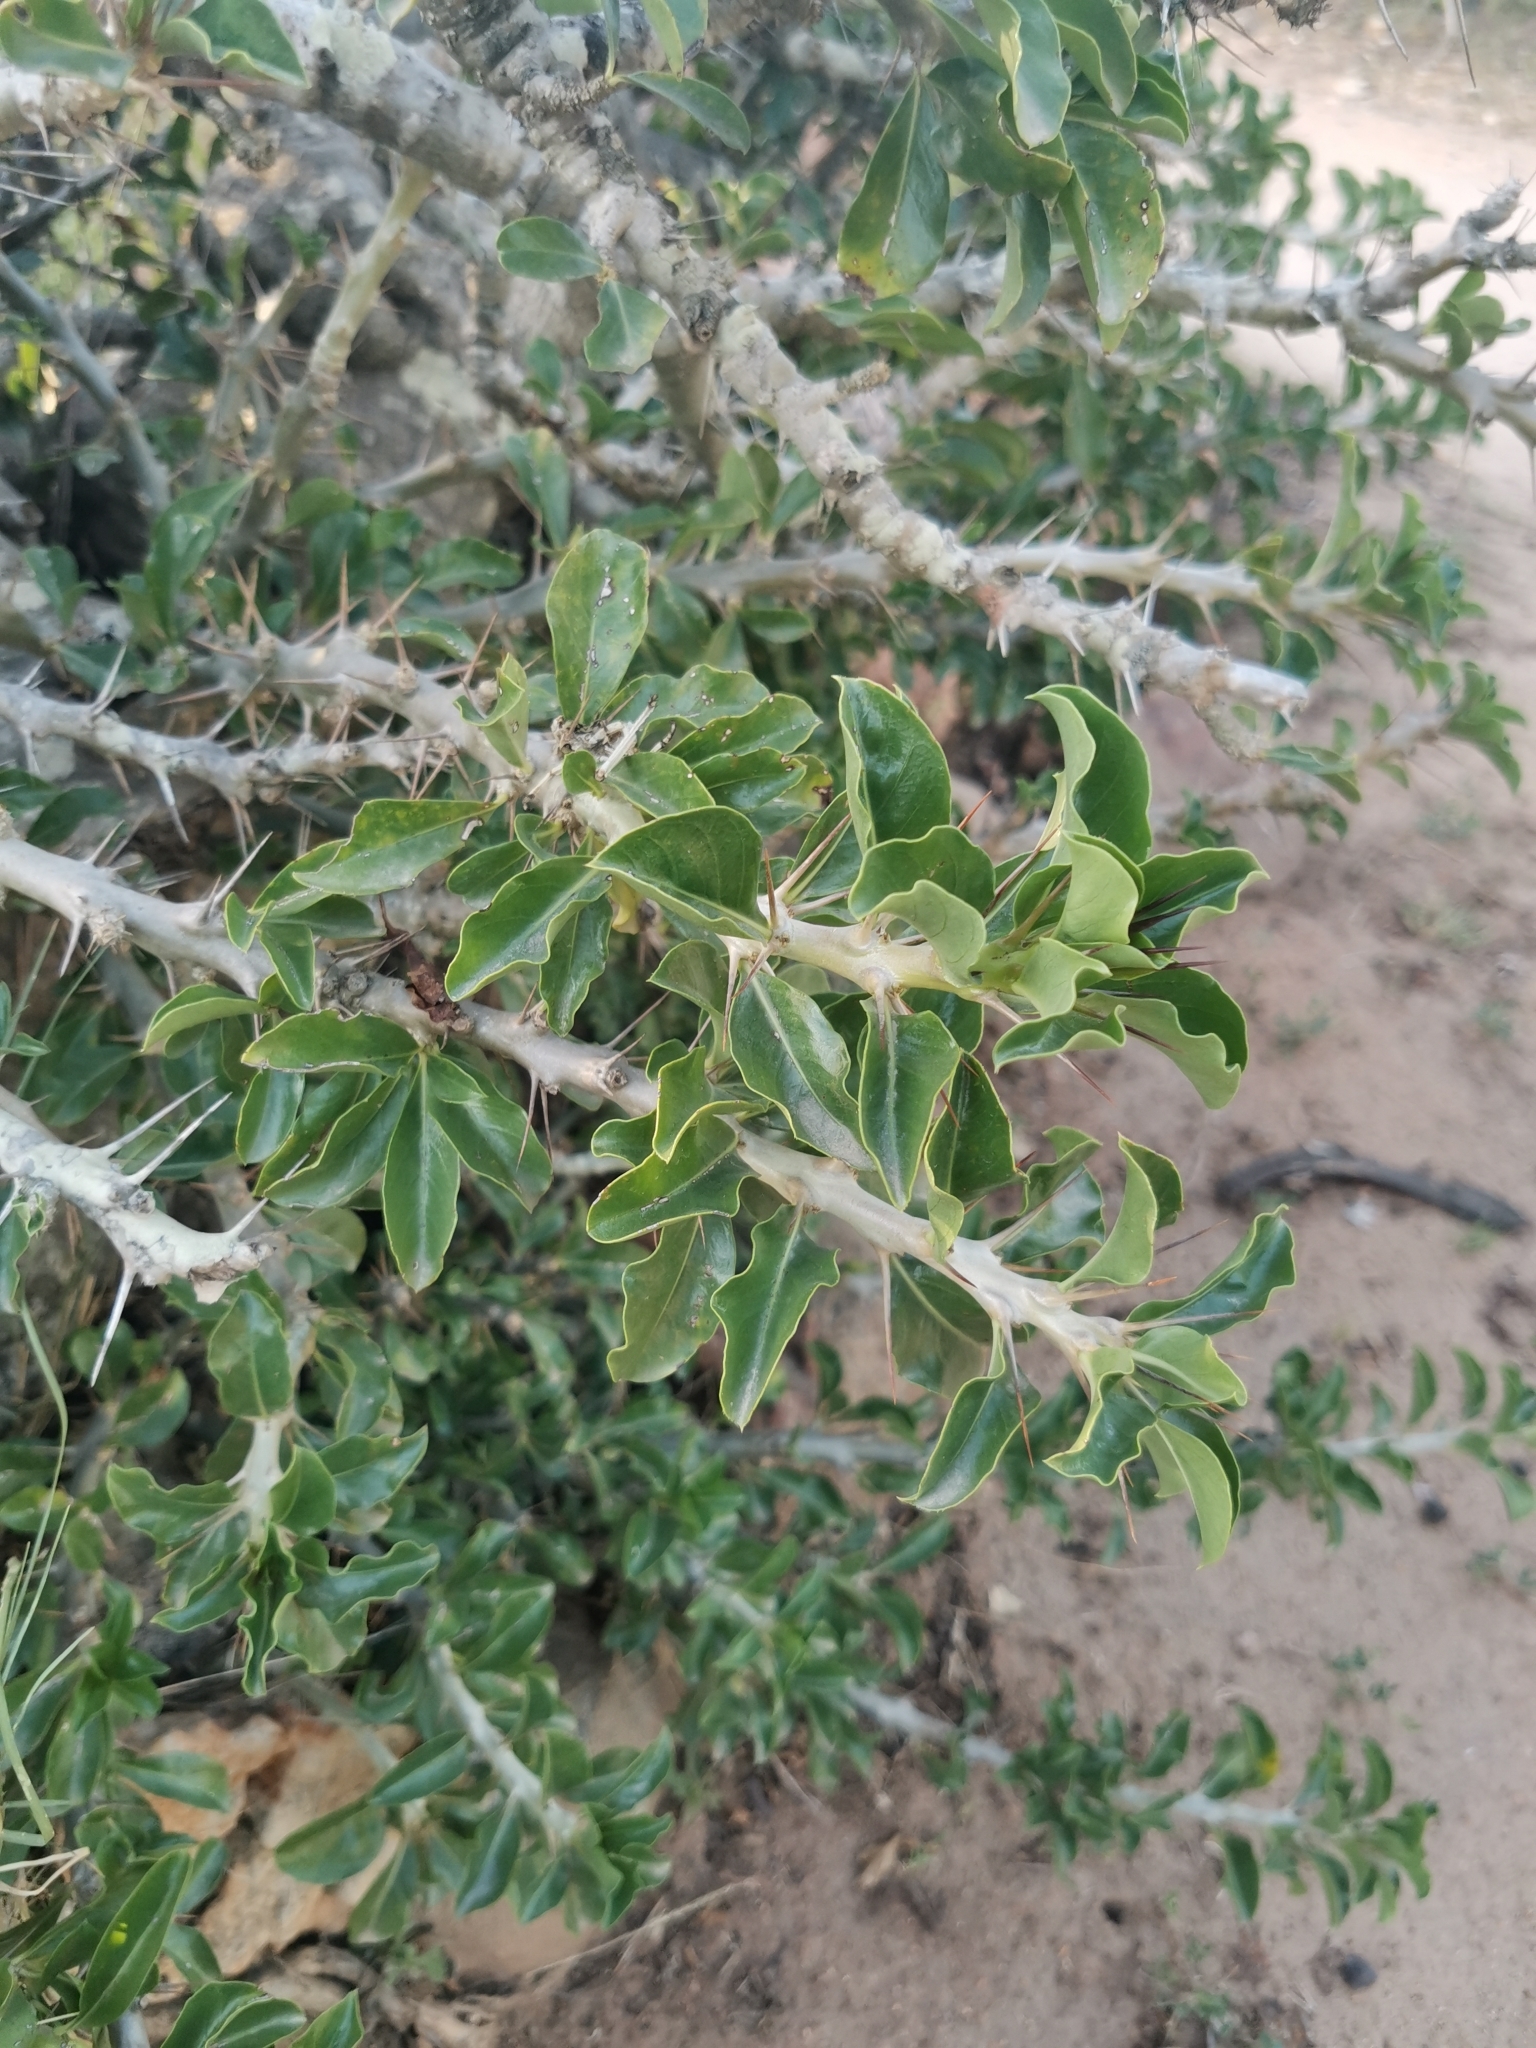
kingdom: Plantae
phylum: Tracheophyta
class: Magnoliopsida
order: Gentianales
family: Apocynaceae
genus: Pachypodium
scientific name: Pachypodium saundersii
